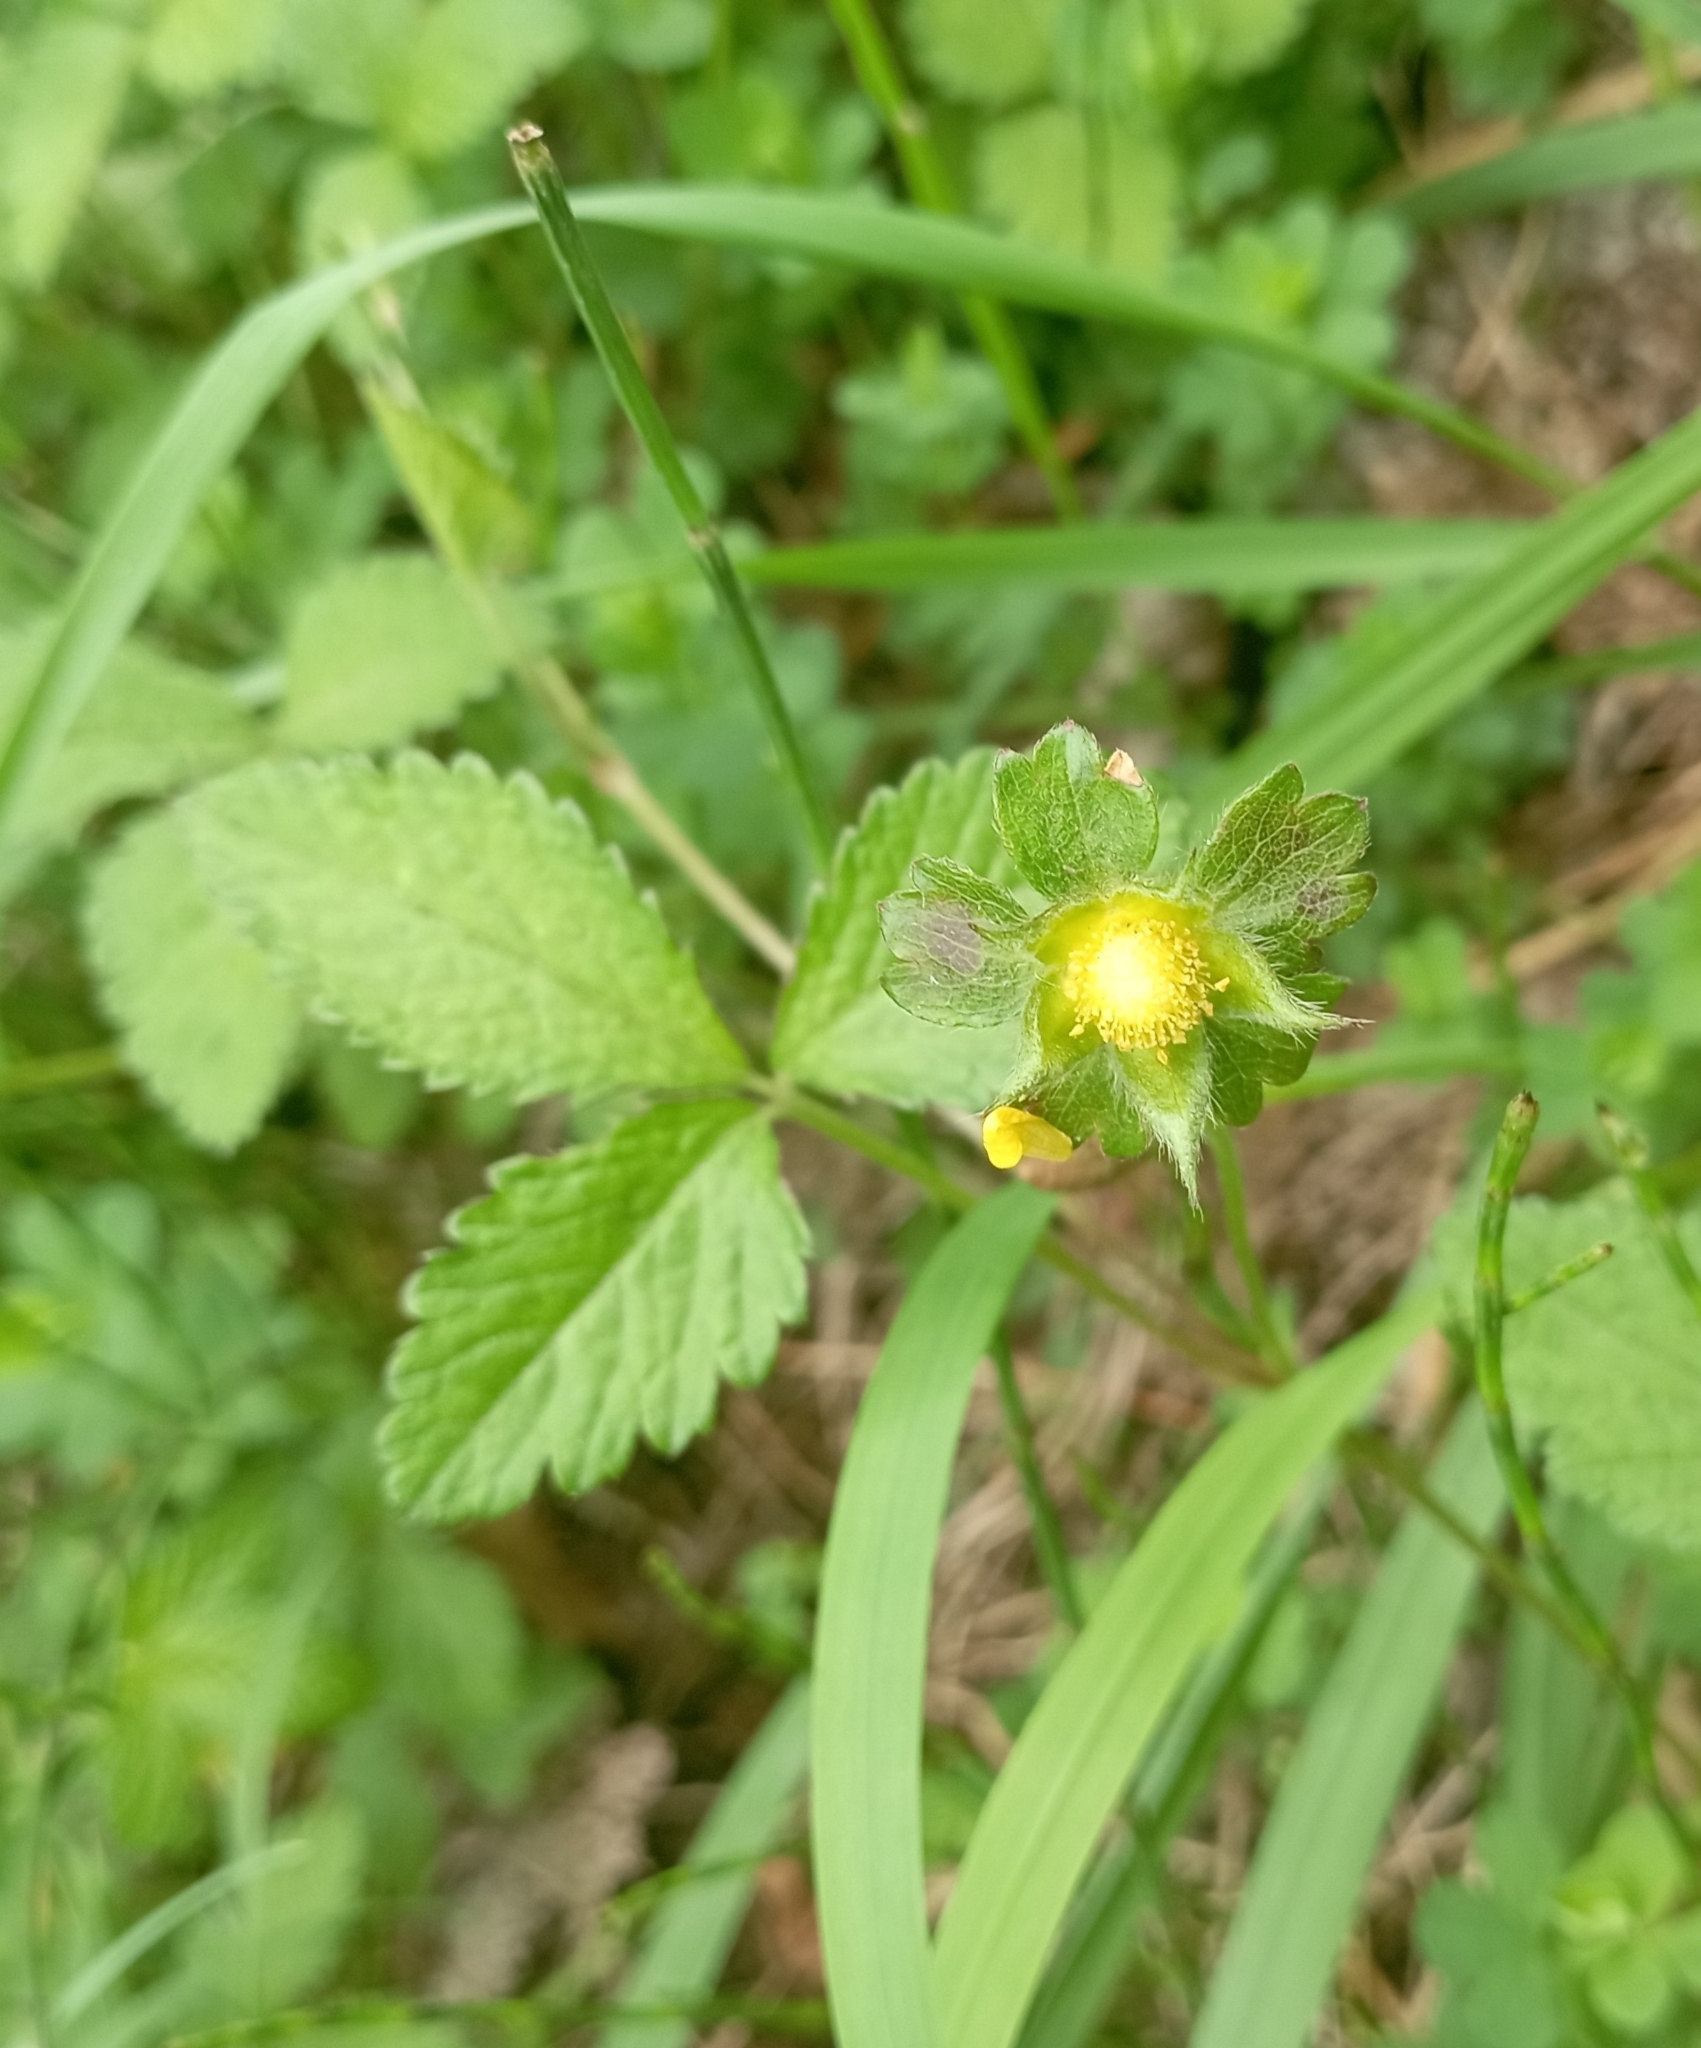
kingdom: Plantae
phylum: Tracheophyta
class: Magnoliopsida
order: Rosales
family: Rosaceae
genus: Potentilla
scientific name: Potentilla indica
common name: Yellow-flowered strawberry
